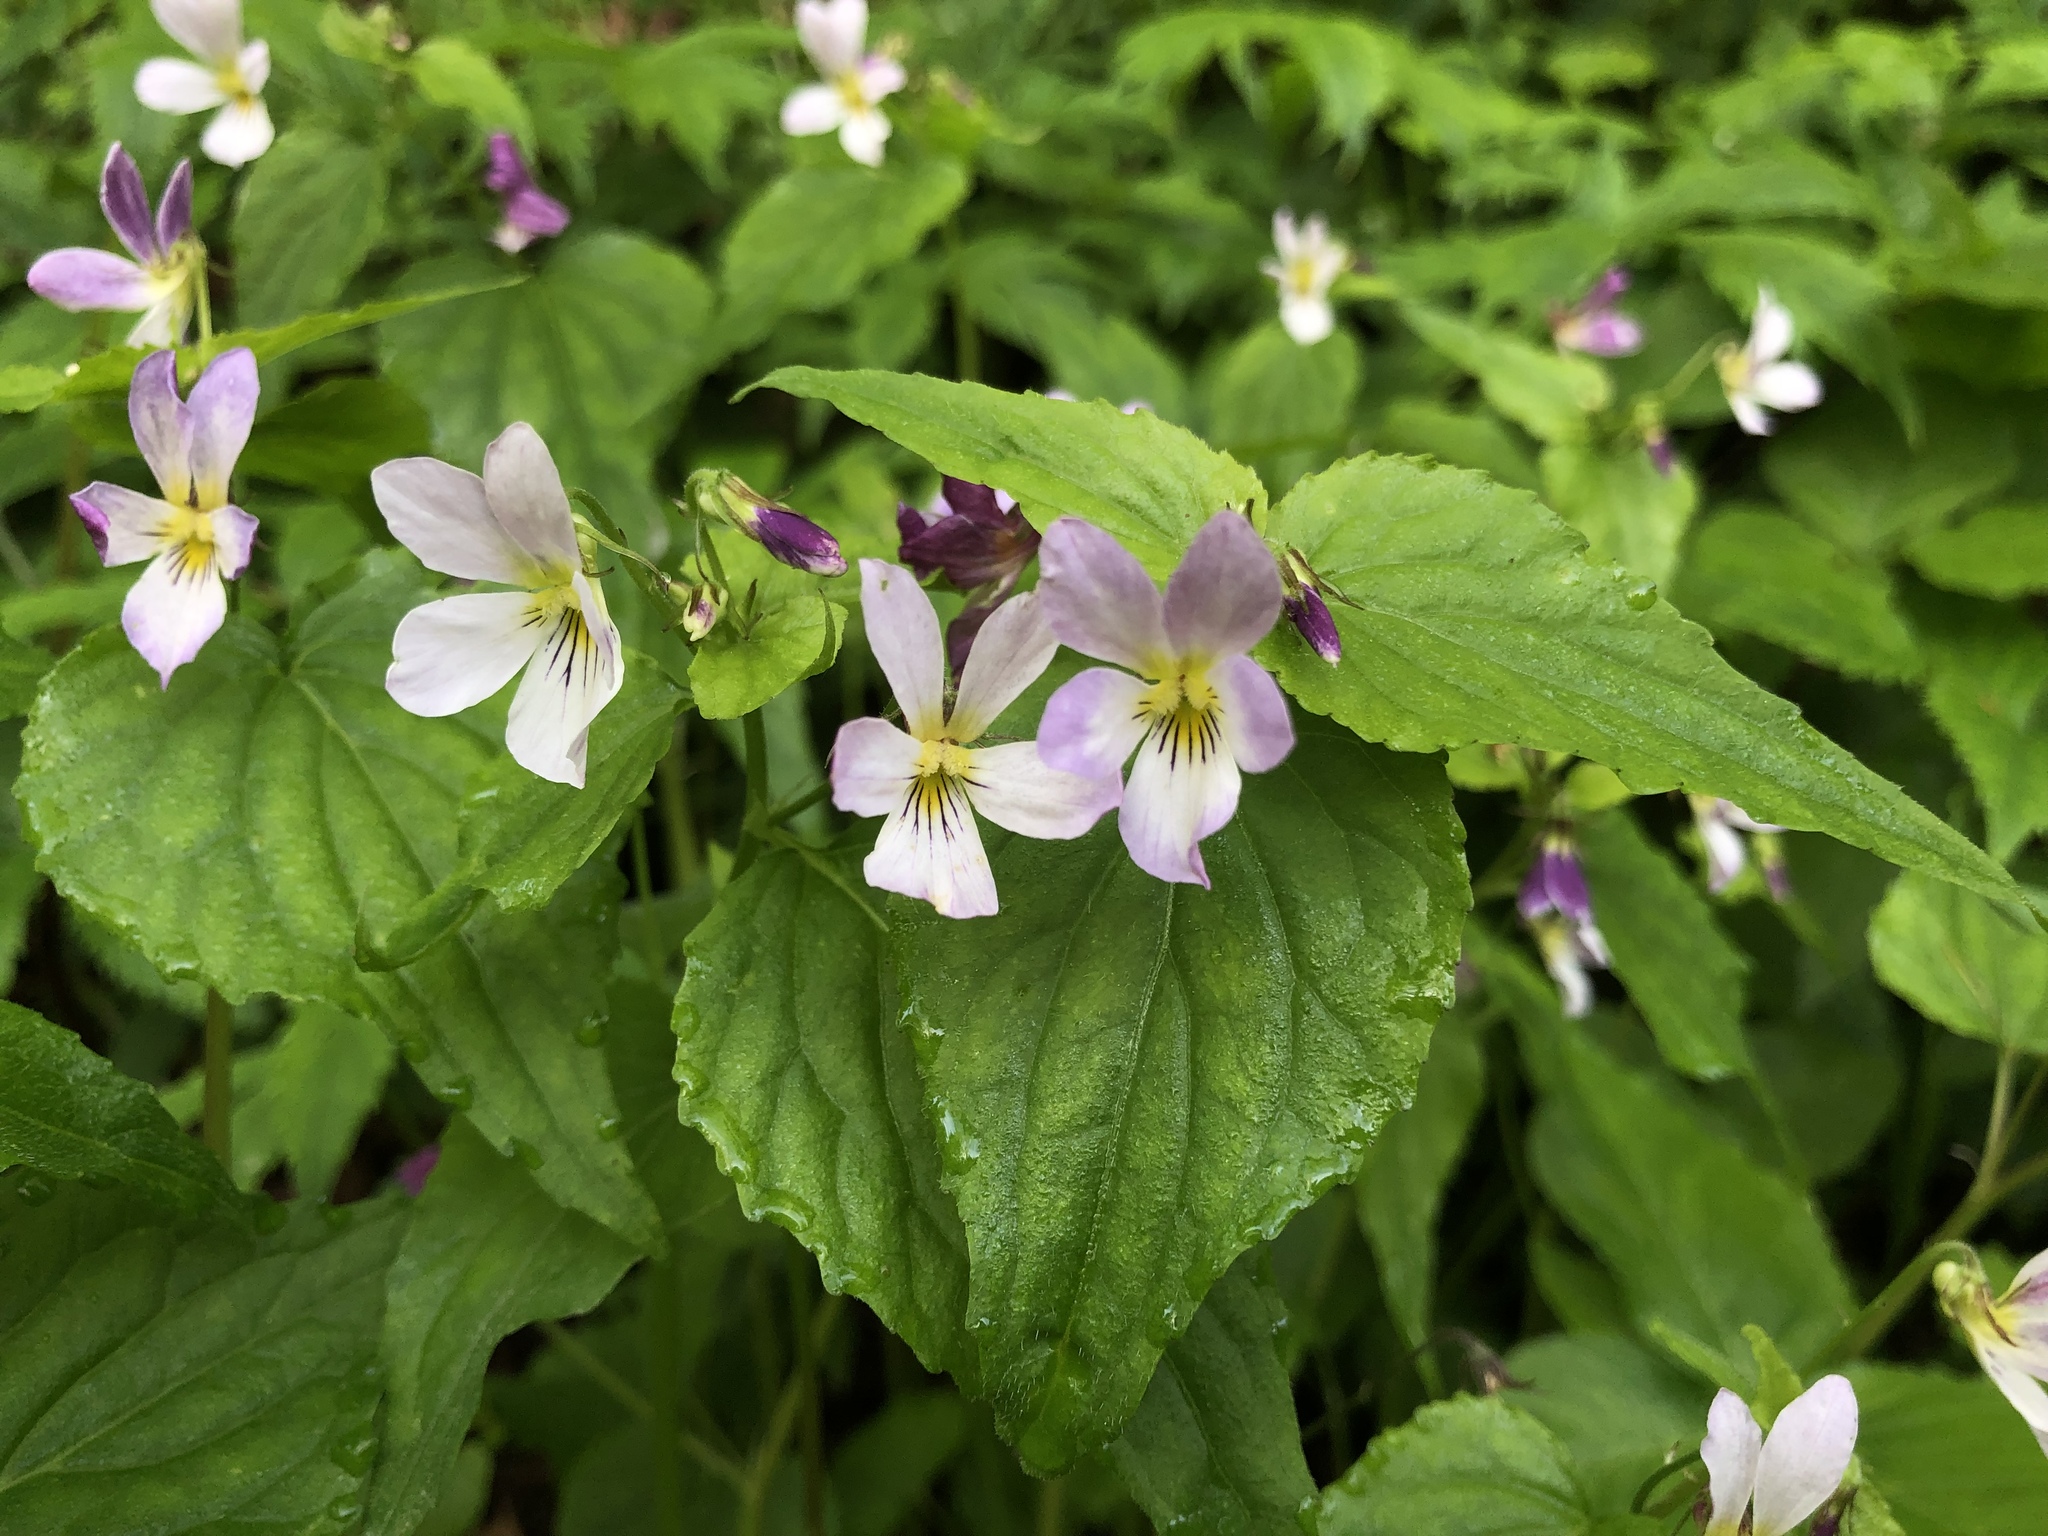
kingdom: Plantae
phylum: Tracheophyta
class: Magnoliopsida
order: Malpighiales
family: Violaceae
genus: Viola
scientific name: Viola canadensis
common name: Canada violet
